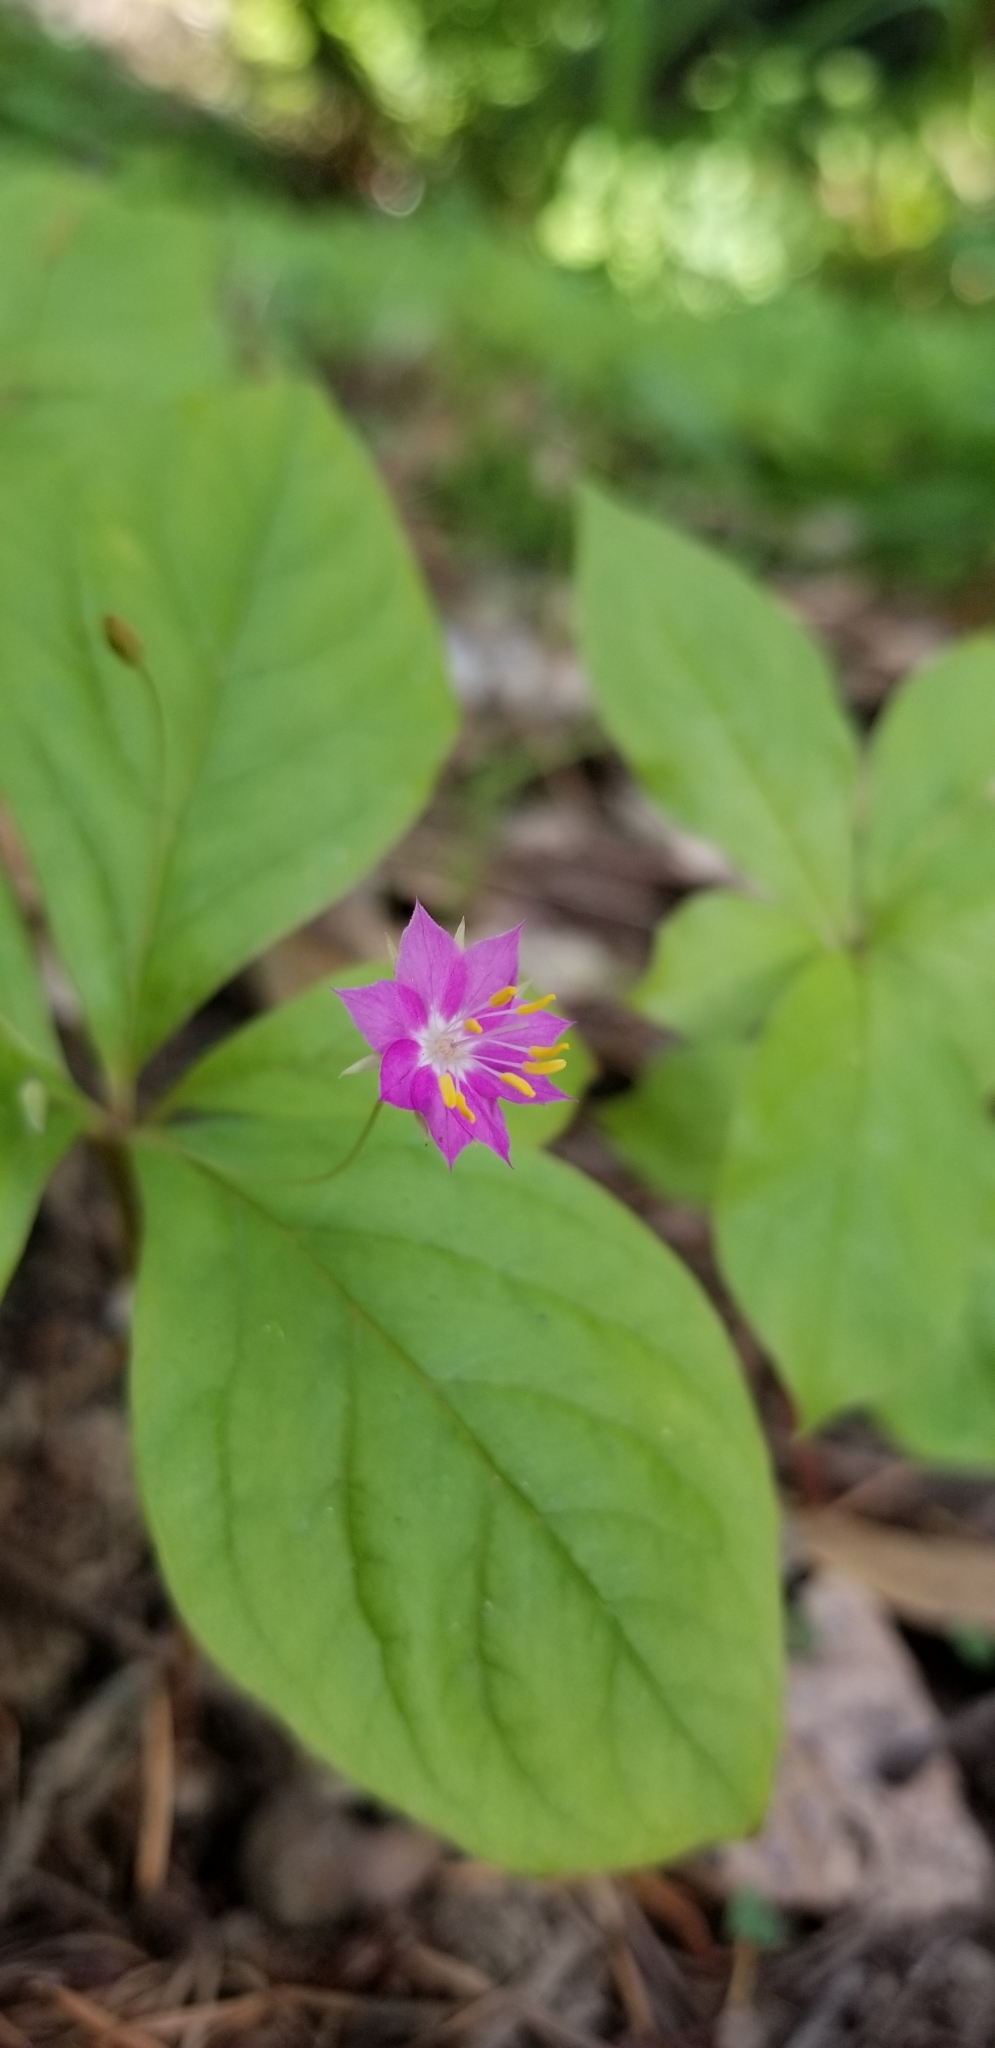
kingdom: Plantae
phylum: Tracheophyta
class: Magnoliopsida
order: Ericales
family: Primulaceae
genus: Lysimachia
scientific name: Lysimachia latifolia
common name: Pacific starflower
